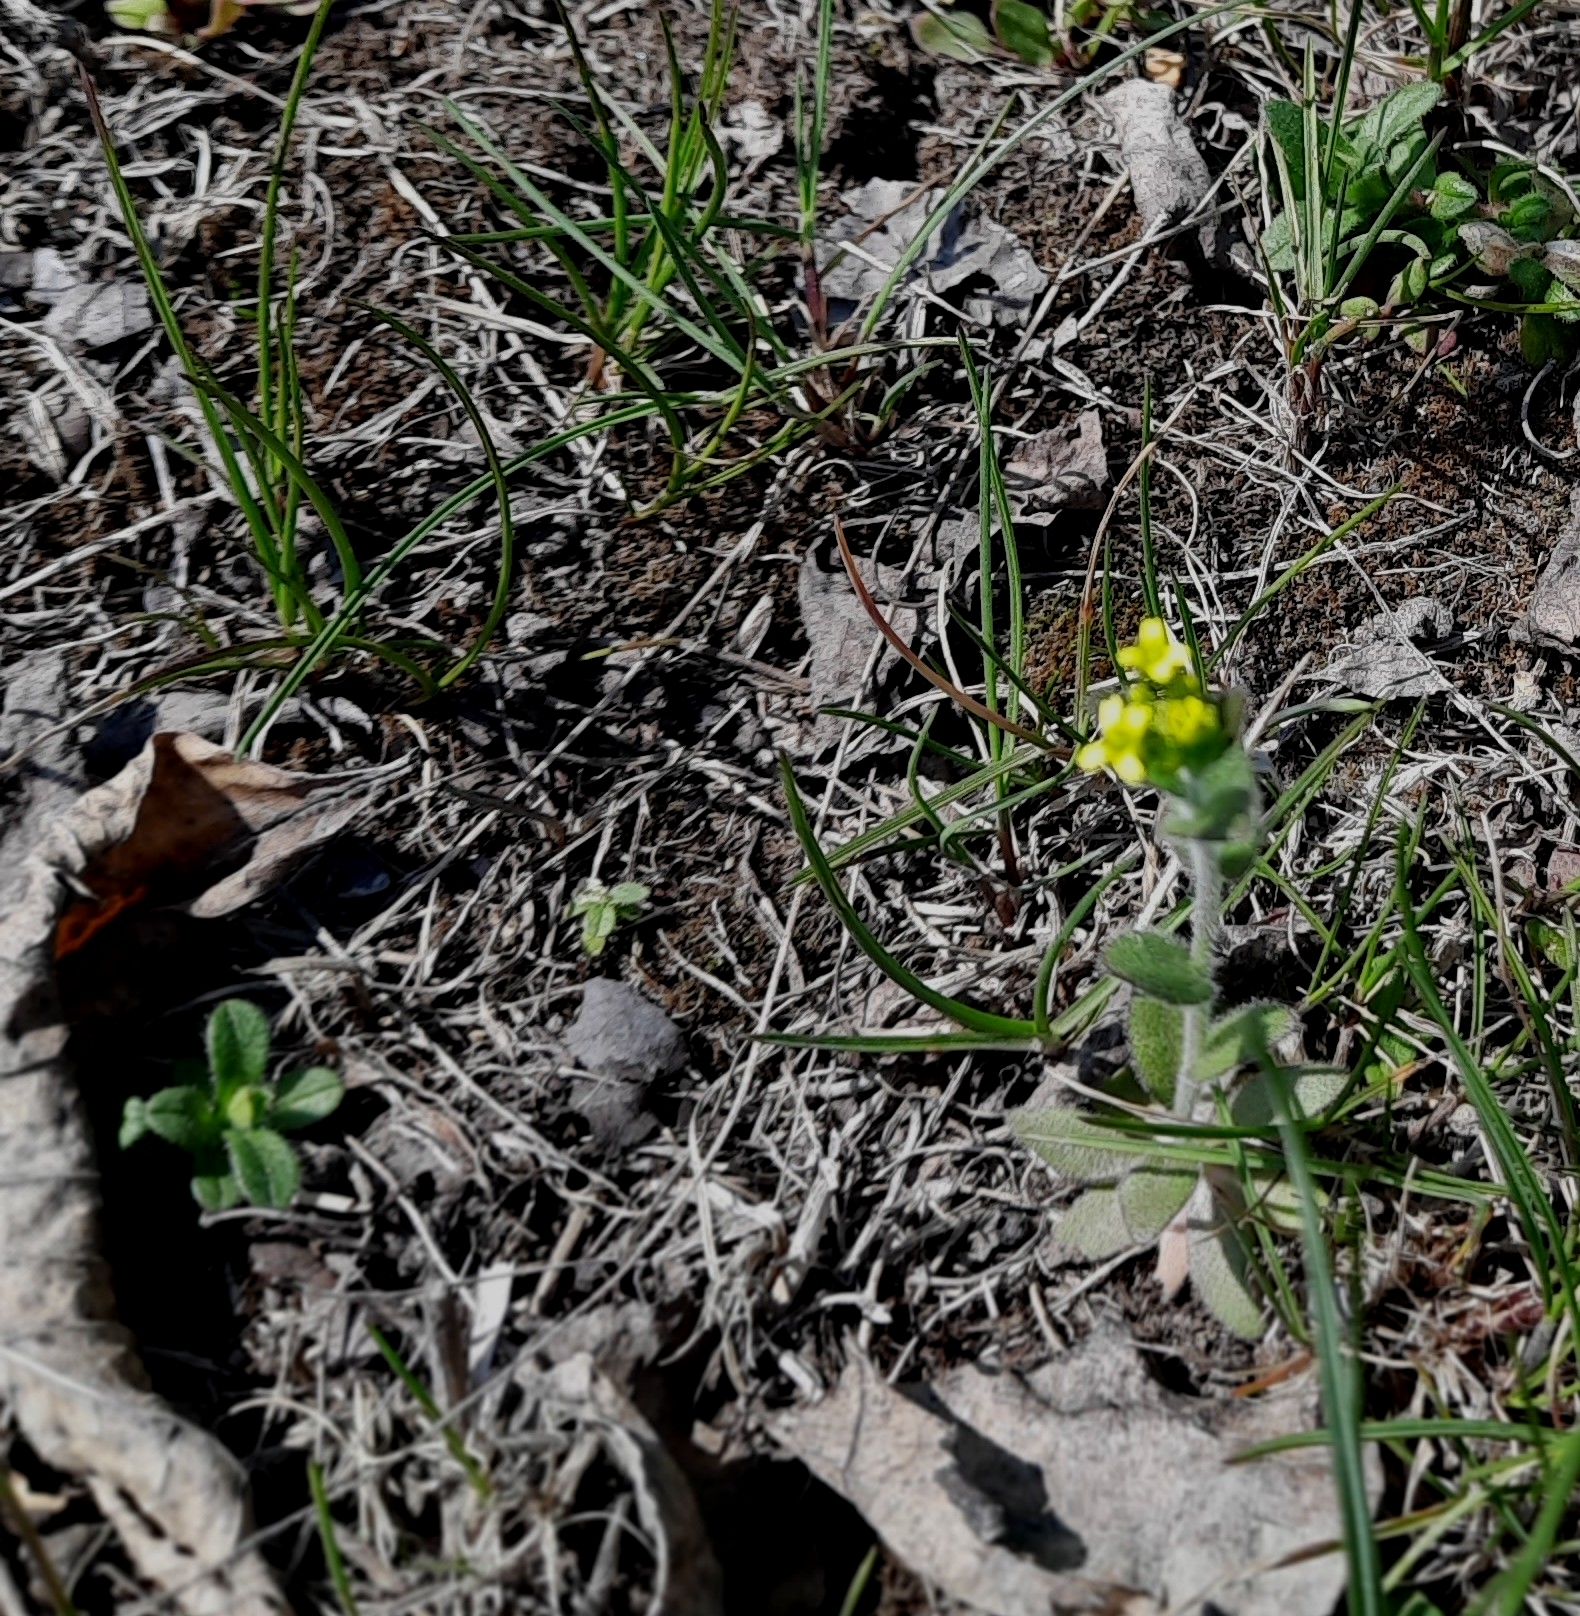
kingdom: Plantae
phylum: Tracheophyta
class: Magnoliopsida
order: Brassicales
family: Brassicaceae
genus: Draba
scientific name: Draba nemorosa
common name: Wood whitlow-grass
